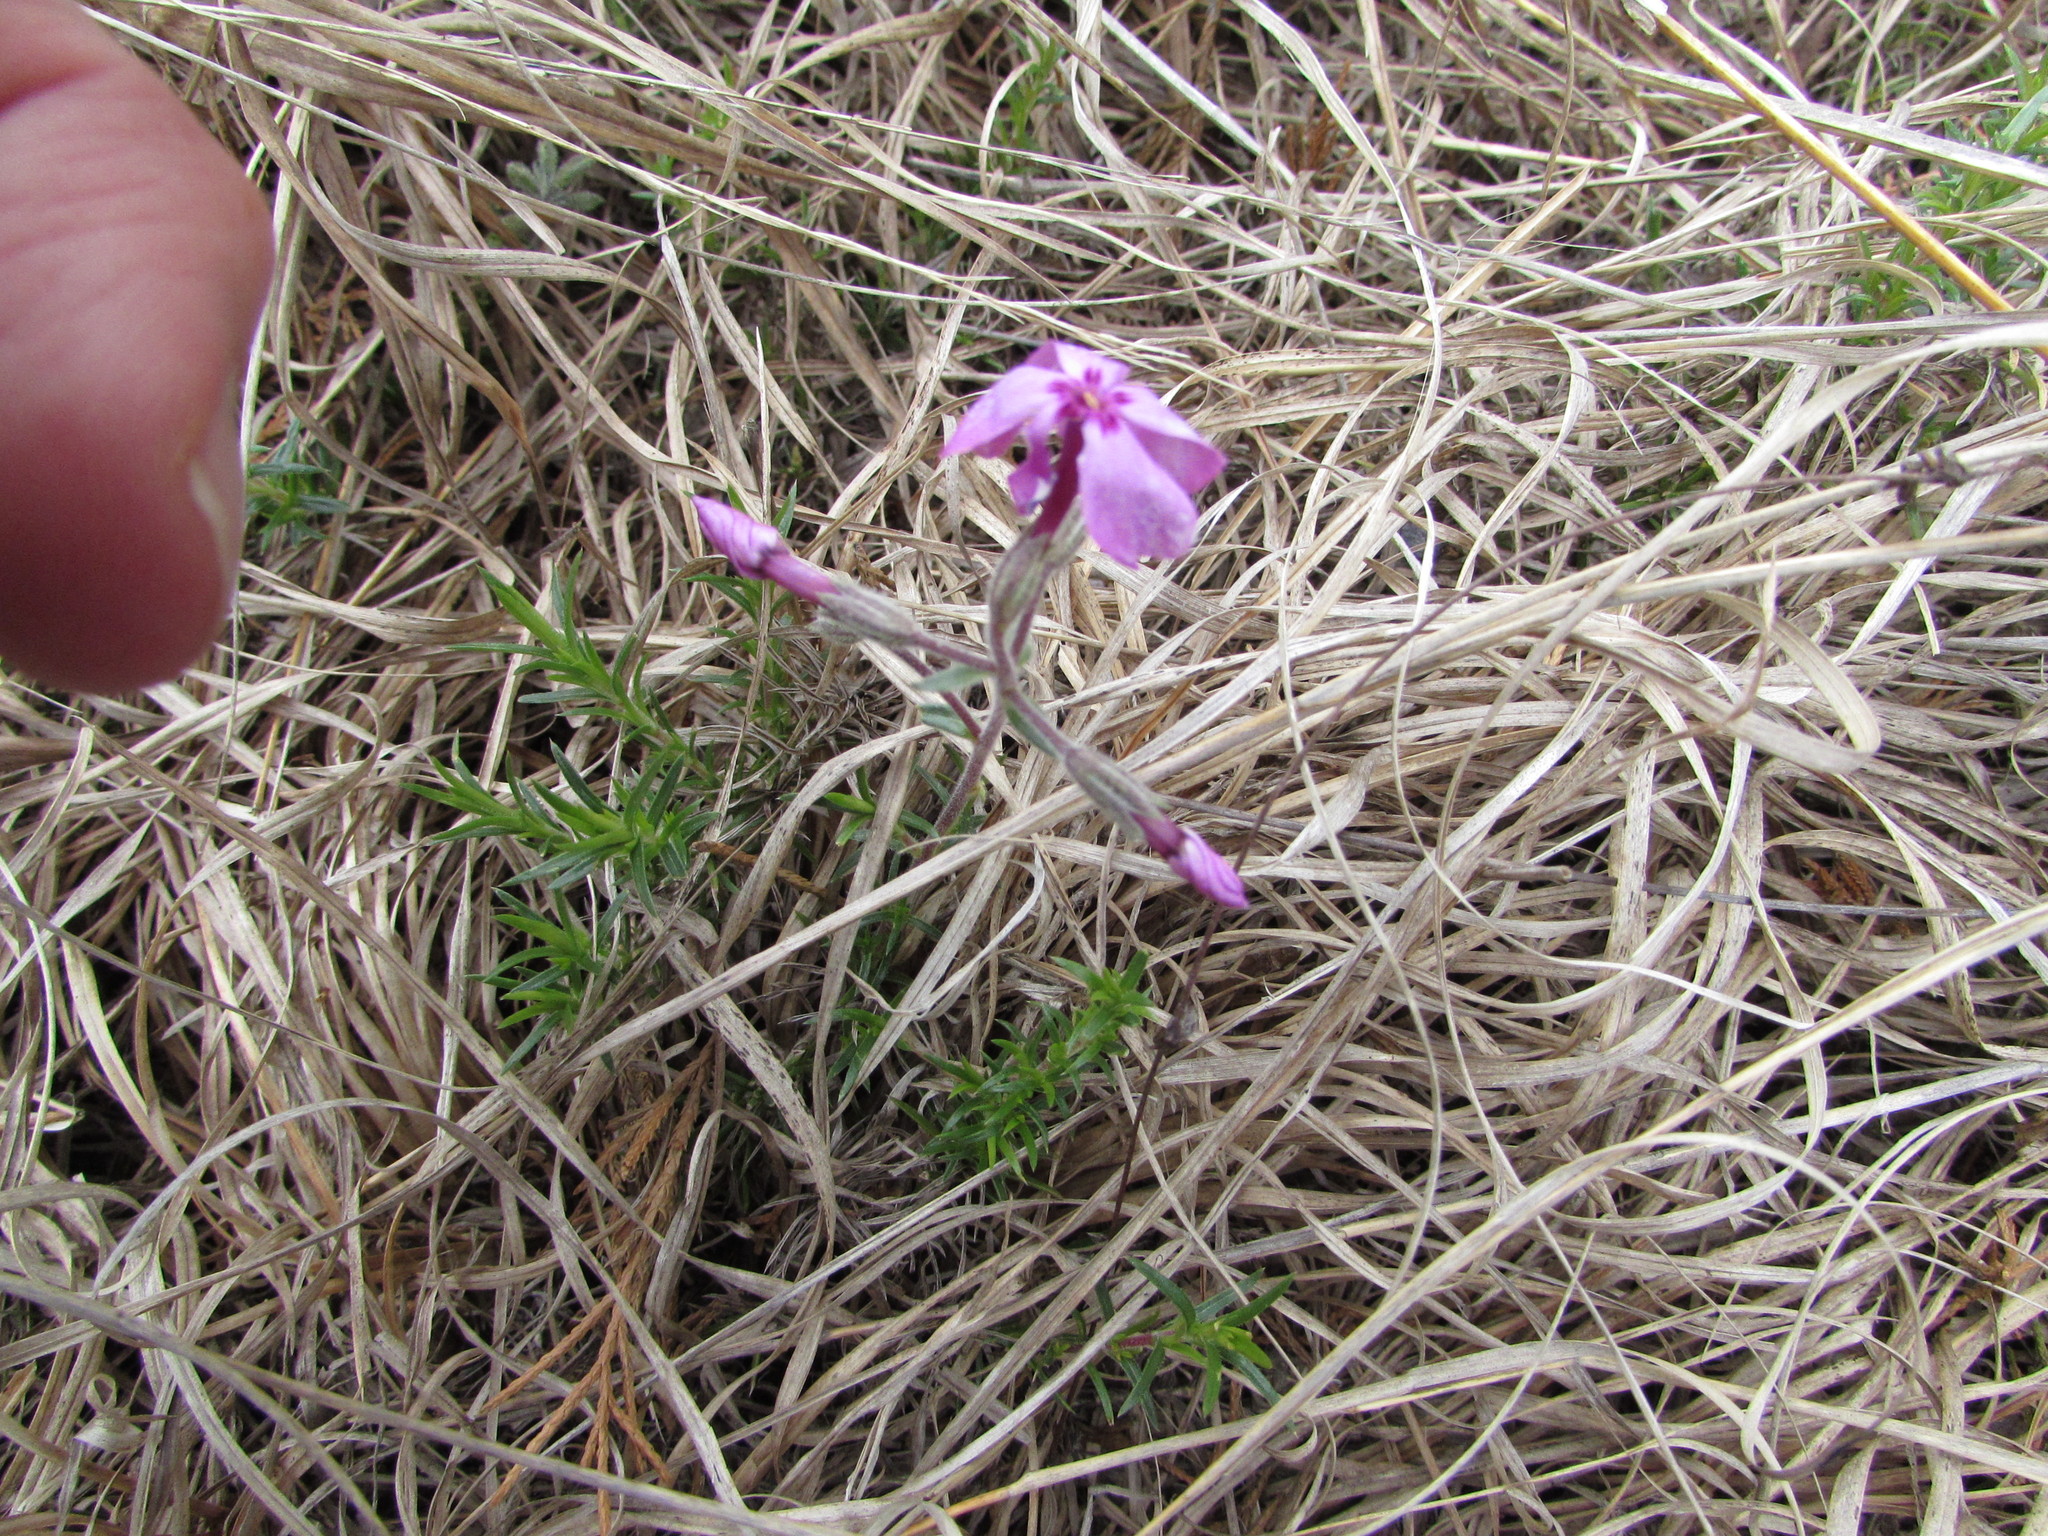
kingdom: Plantae
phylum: Tracheophyta
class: Magnoliopsida
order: Ericales
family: Polemoniaceae
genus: Phlox
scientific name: Phlox subulata
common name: Moss phlox
